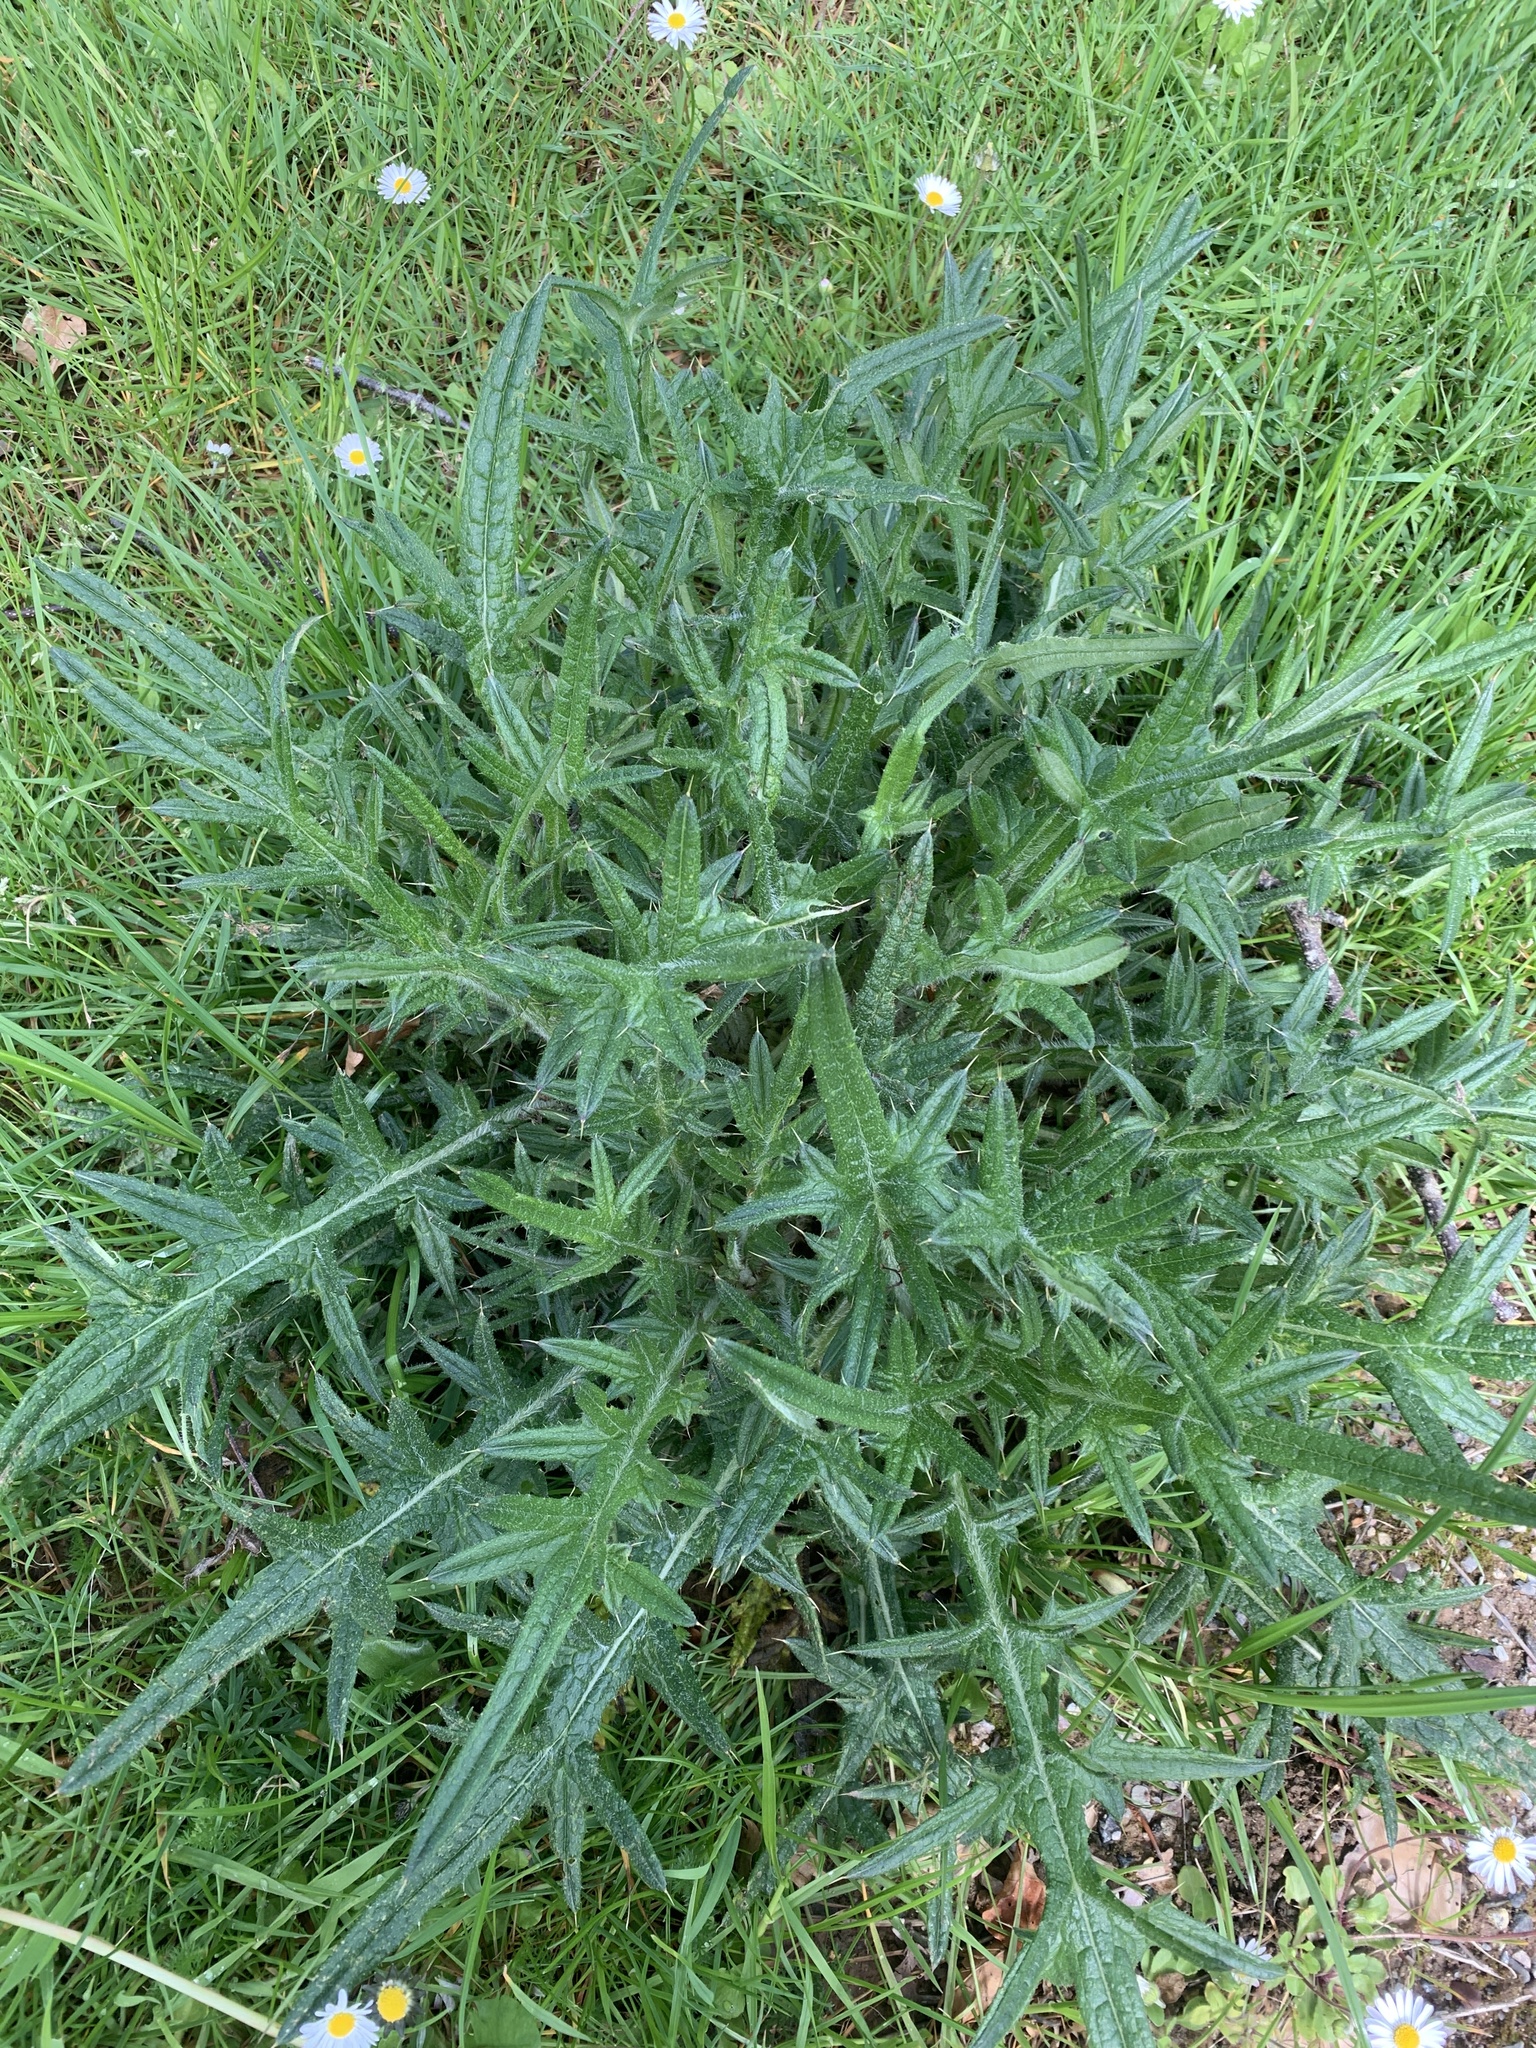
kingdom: Plantae
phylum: Tracheophyta
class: Magnoliopsida
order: Asterales
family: Asteraceae
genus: Cirsium
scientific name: Cirsium vulgare
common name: Bull thistle
